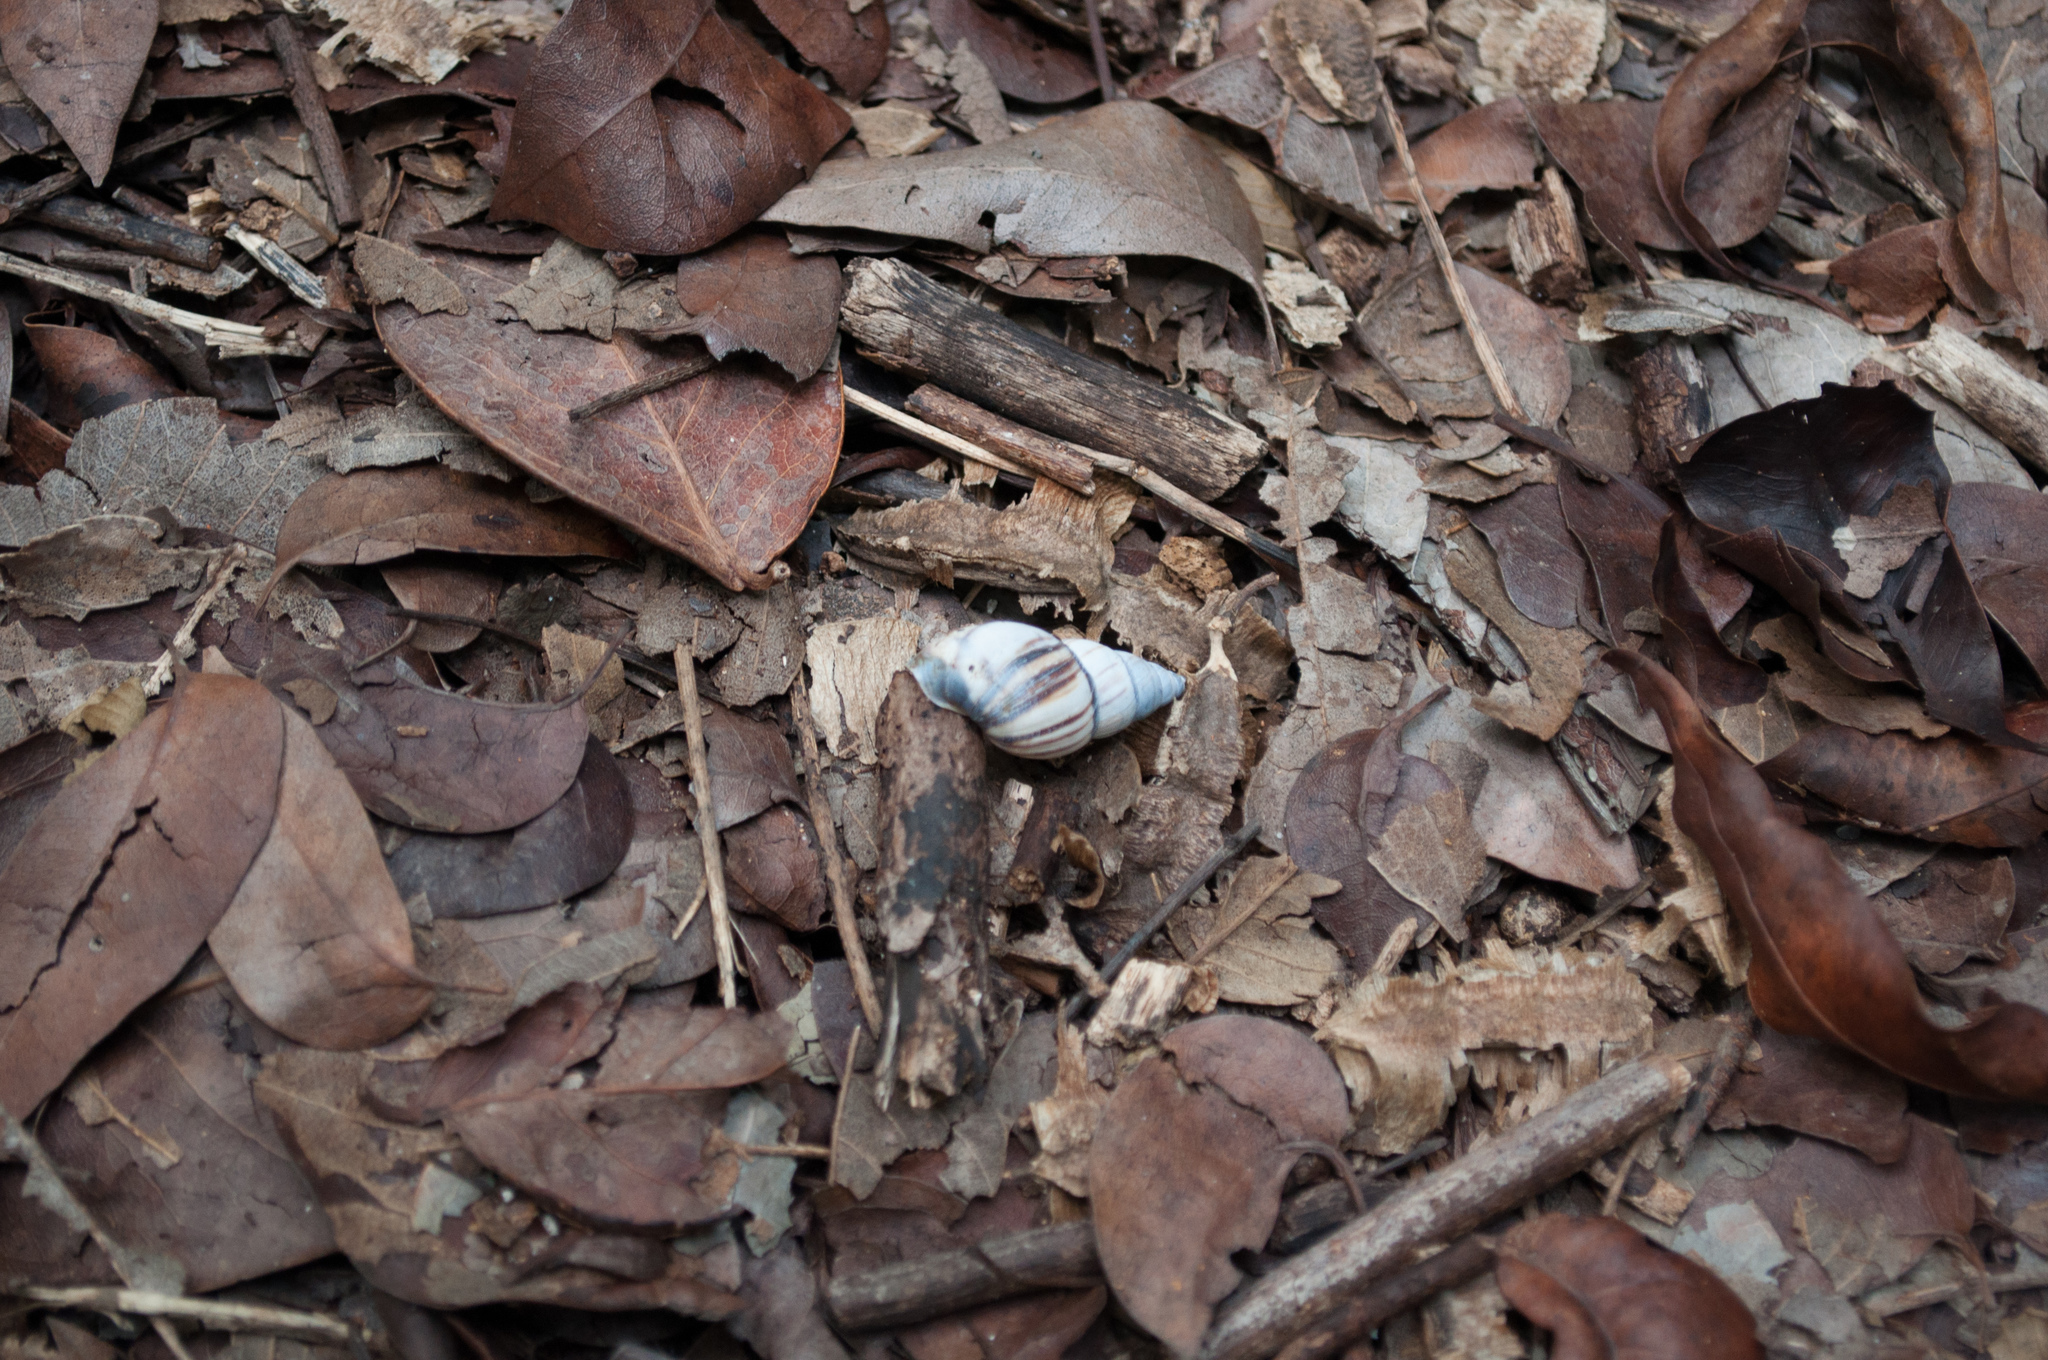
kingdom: Animalia
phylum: Mollusca
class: Gastropoda
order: Stylommatophora
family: Bulimulidae
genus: Drymaeus
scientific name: Drymaeus
